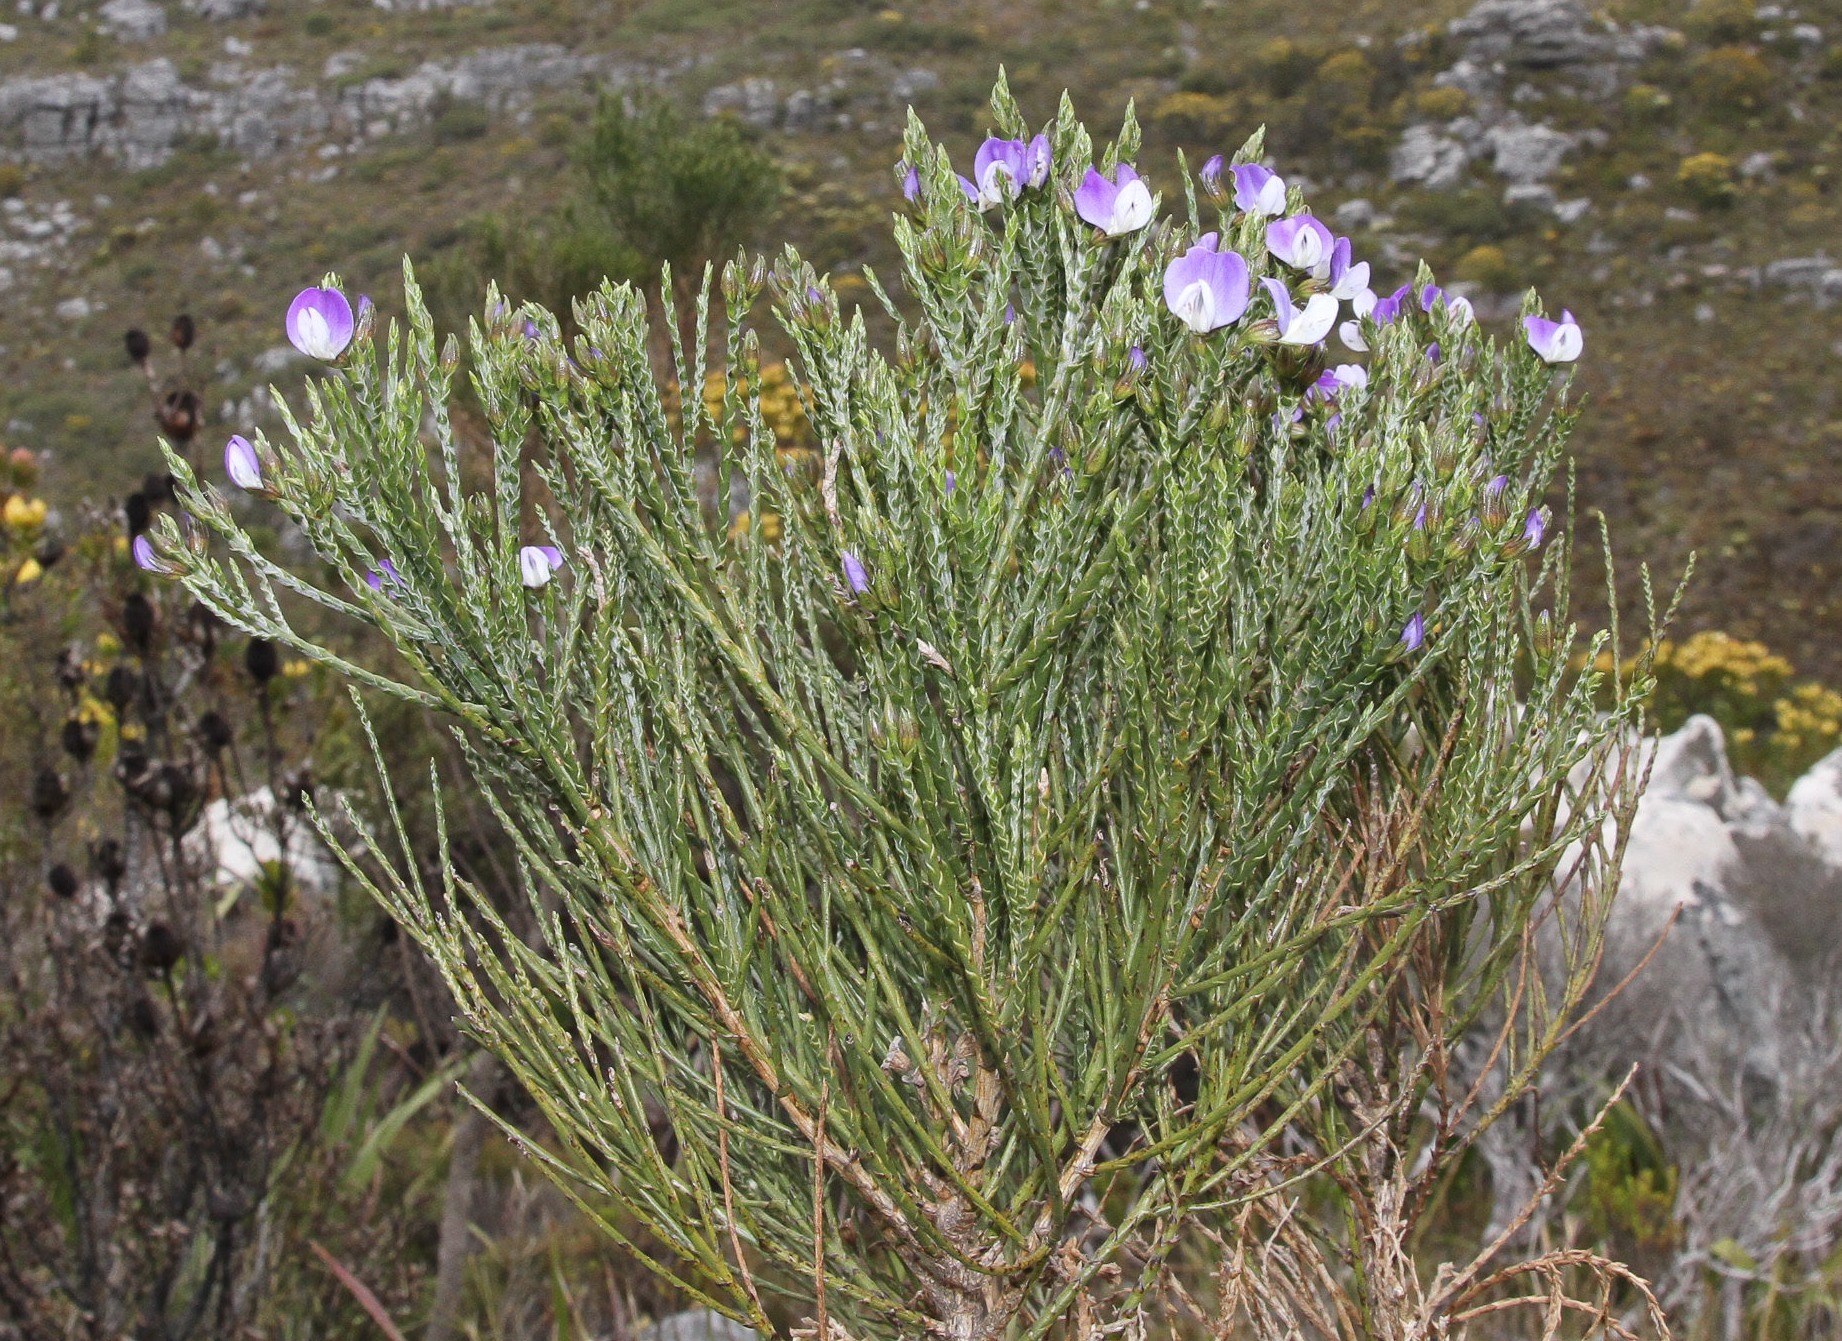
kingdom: Plantae
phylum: Tracheophyta
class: Magnoliopsida
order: Fabales
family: Fabaceae
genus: Psoralea
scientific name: Psoralea congesta
